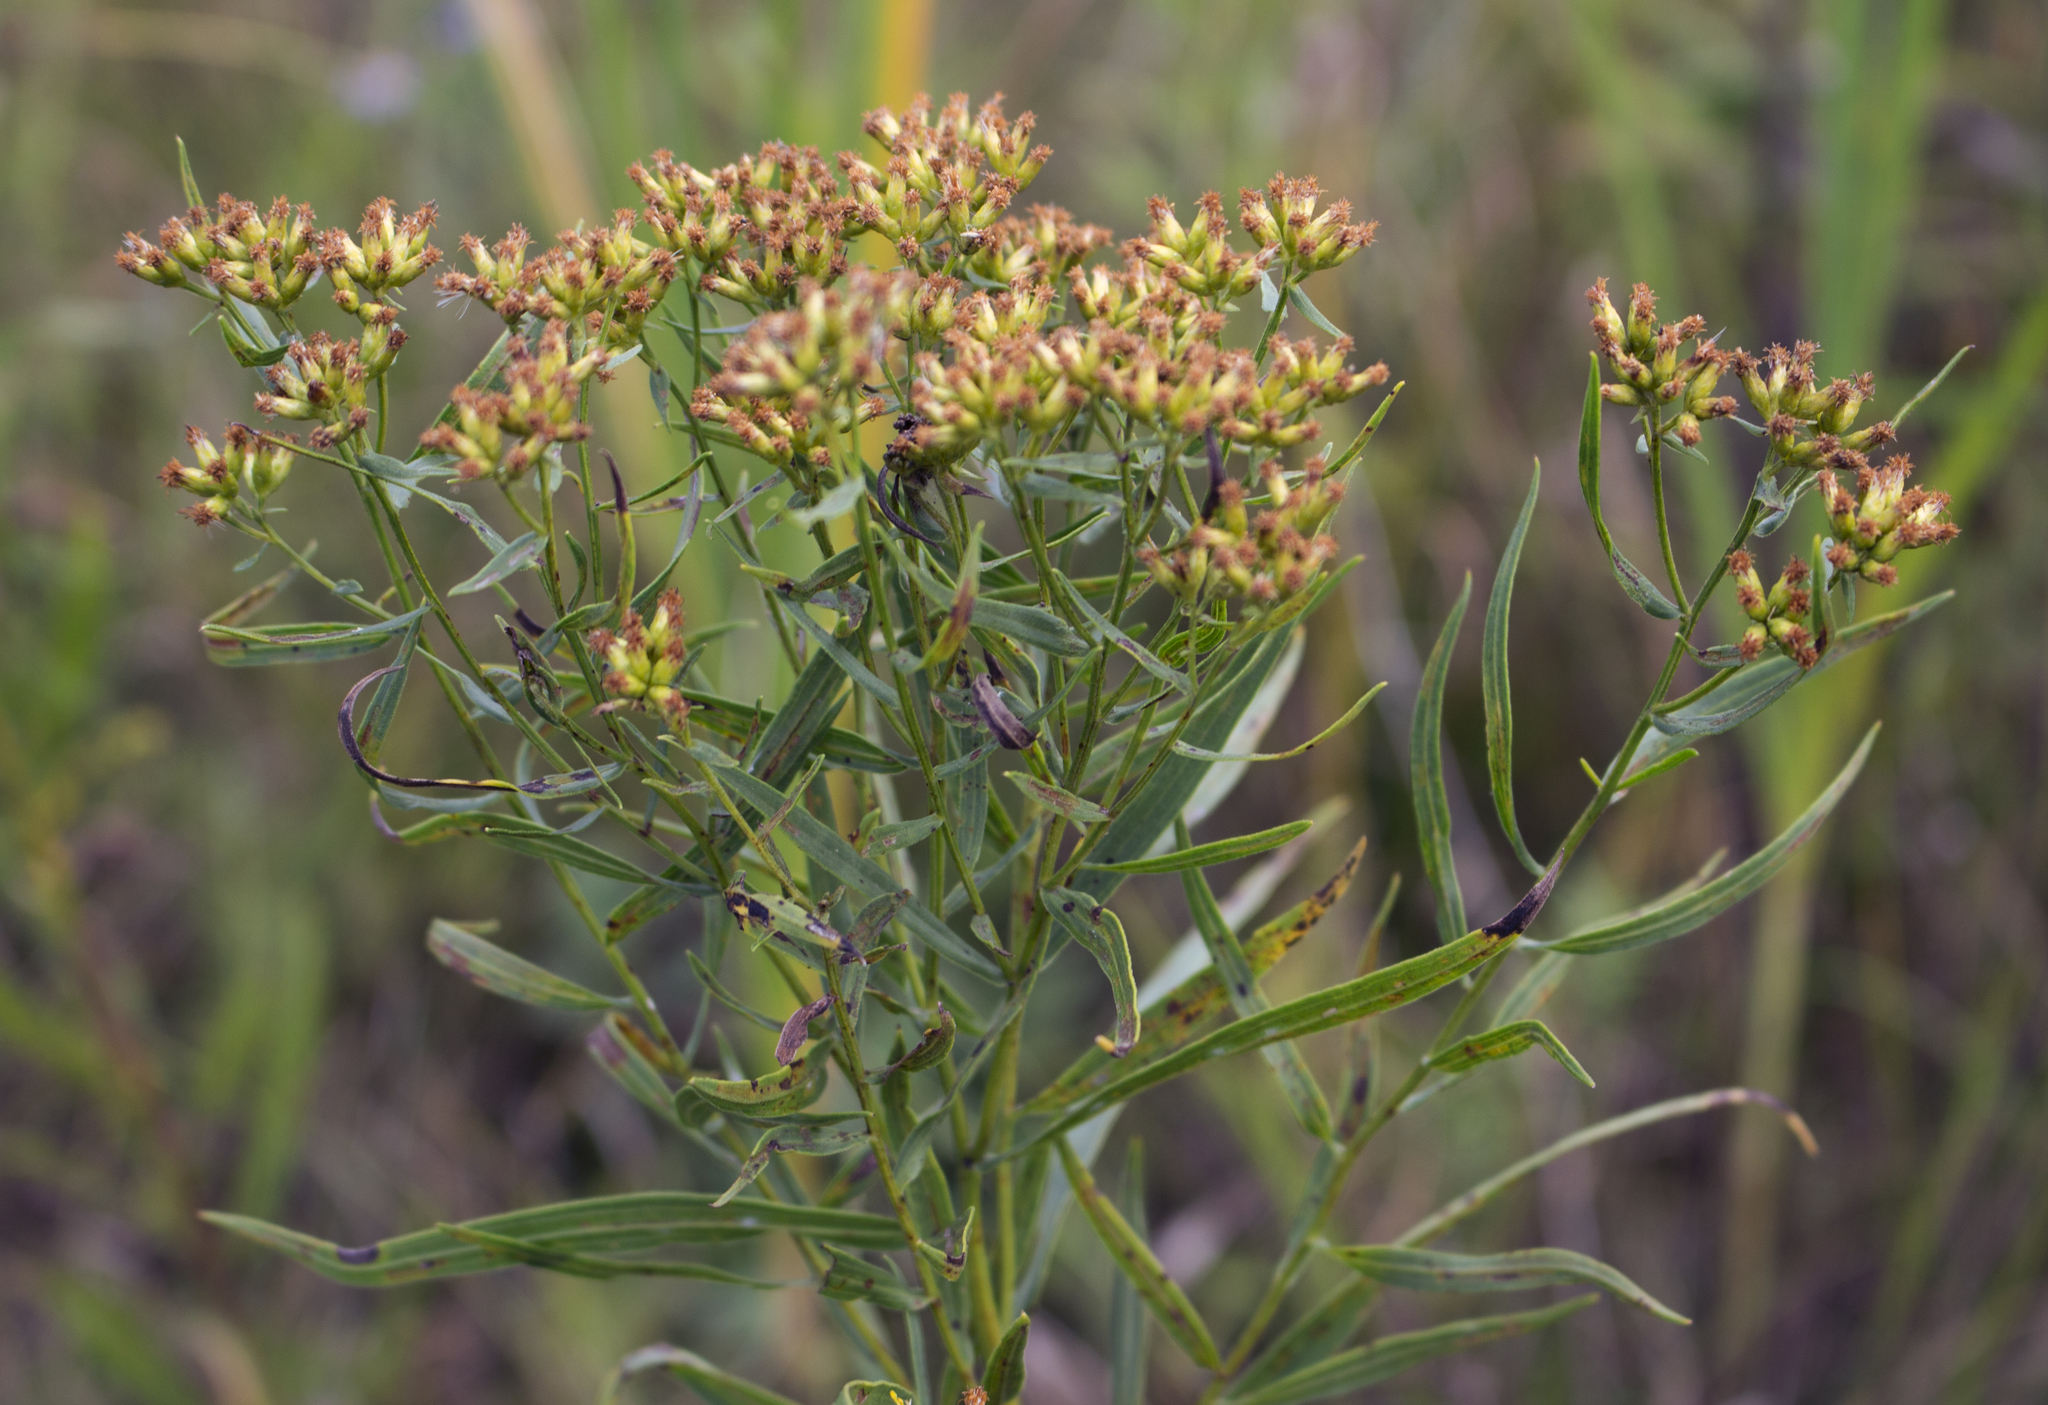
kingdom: Plantae
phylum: Tracheophyta
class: Magnoliopsida
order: Asterales
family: Asteraceae
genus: Euthamia
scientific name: Euthamia graminifolia
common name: Common goldentop
